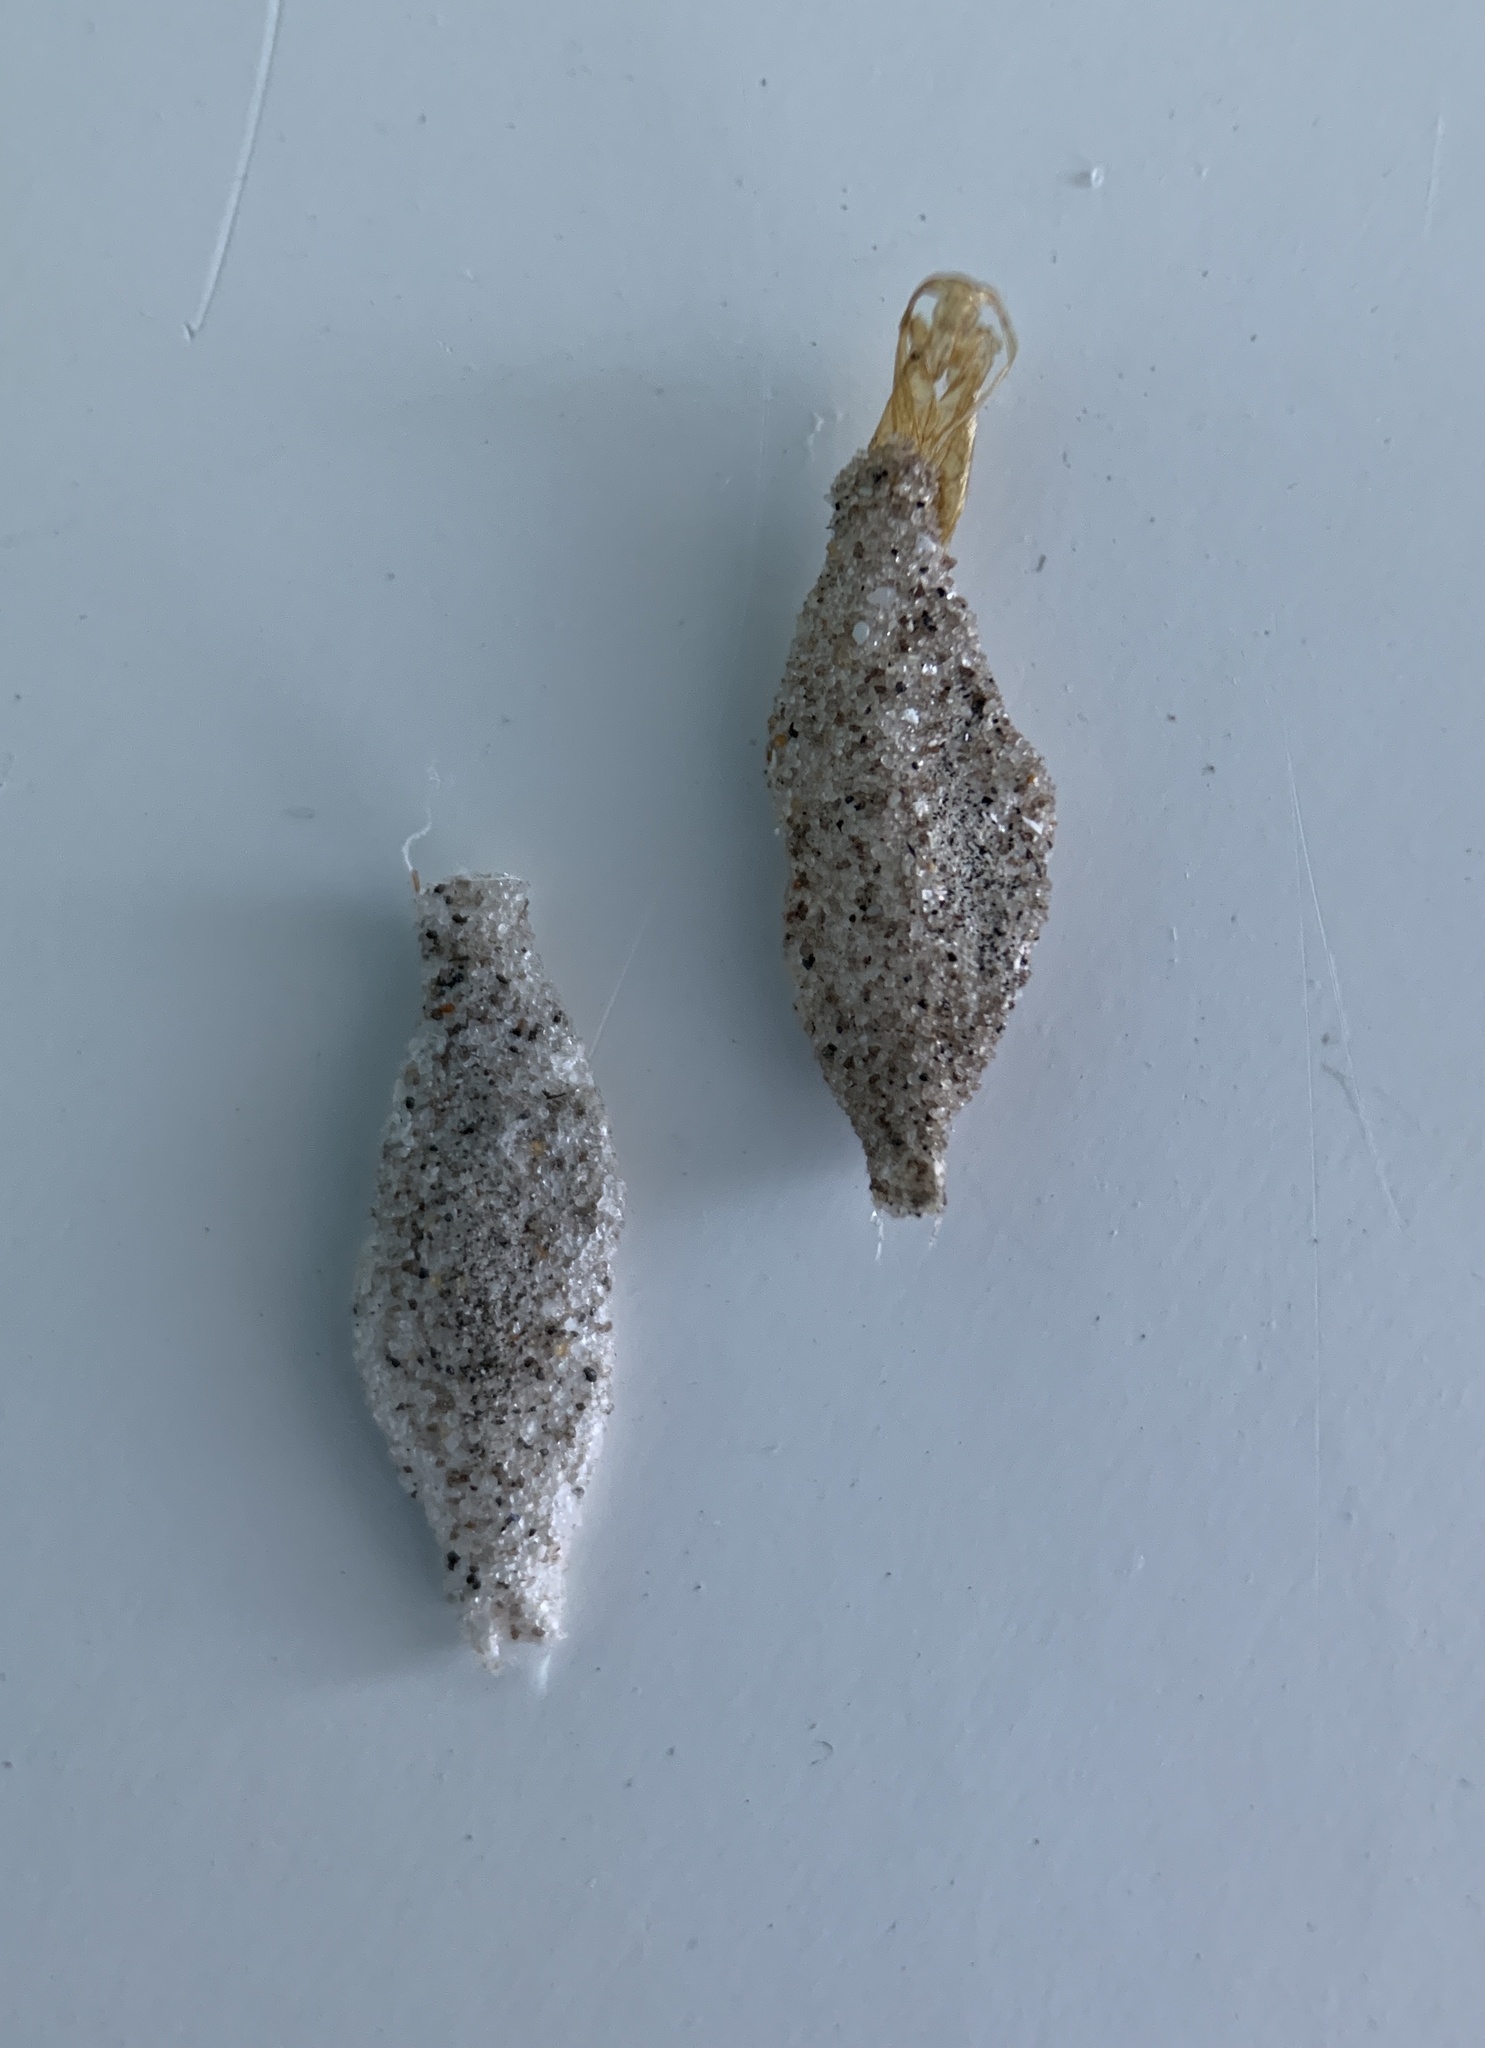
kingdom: Animalia
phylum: Arthropoda
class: Insecta
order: Lepidoptera
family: Tineidae
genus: Phereoeca
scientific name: Phereoeca uterella
